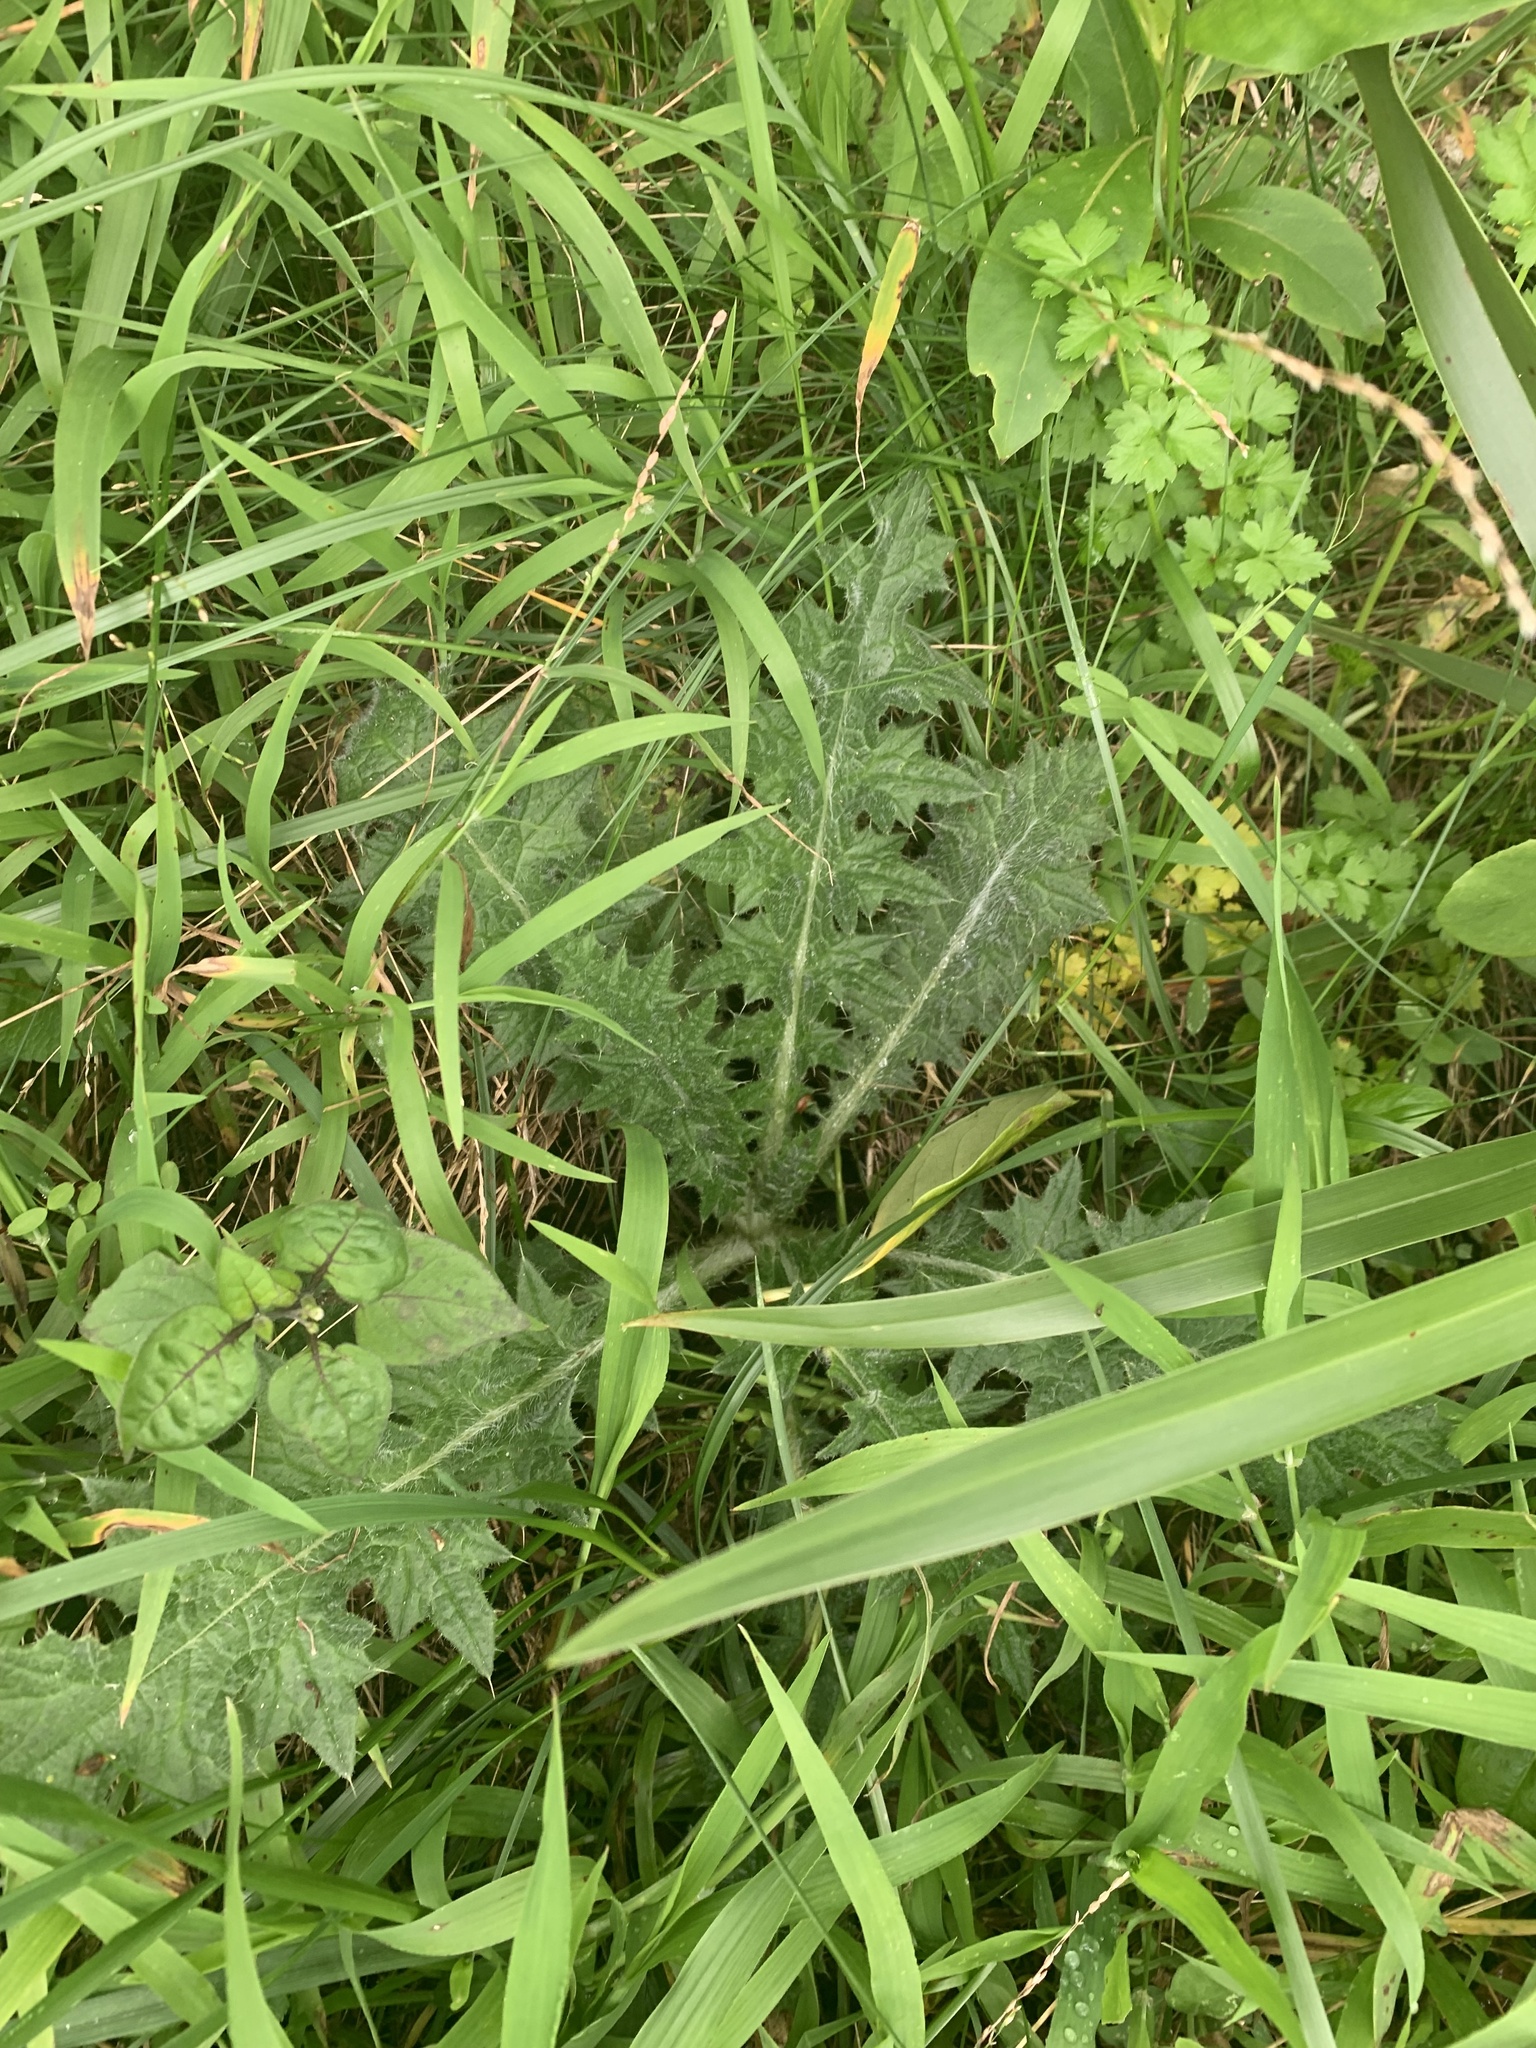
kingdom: Plantae
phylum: Tracheophyta
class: Magnoliopsida
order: Asterales
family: Asteraceae
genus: Cirsium
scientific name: Cirsium vulgare
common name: Bull thistle
